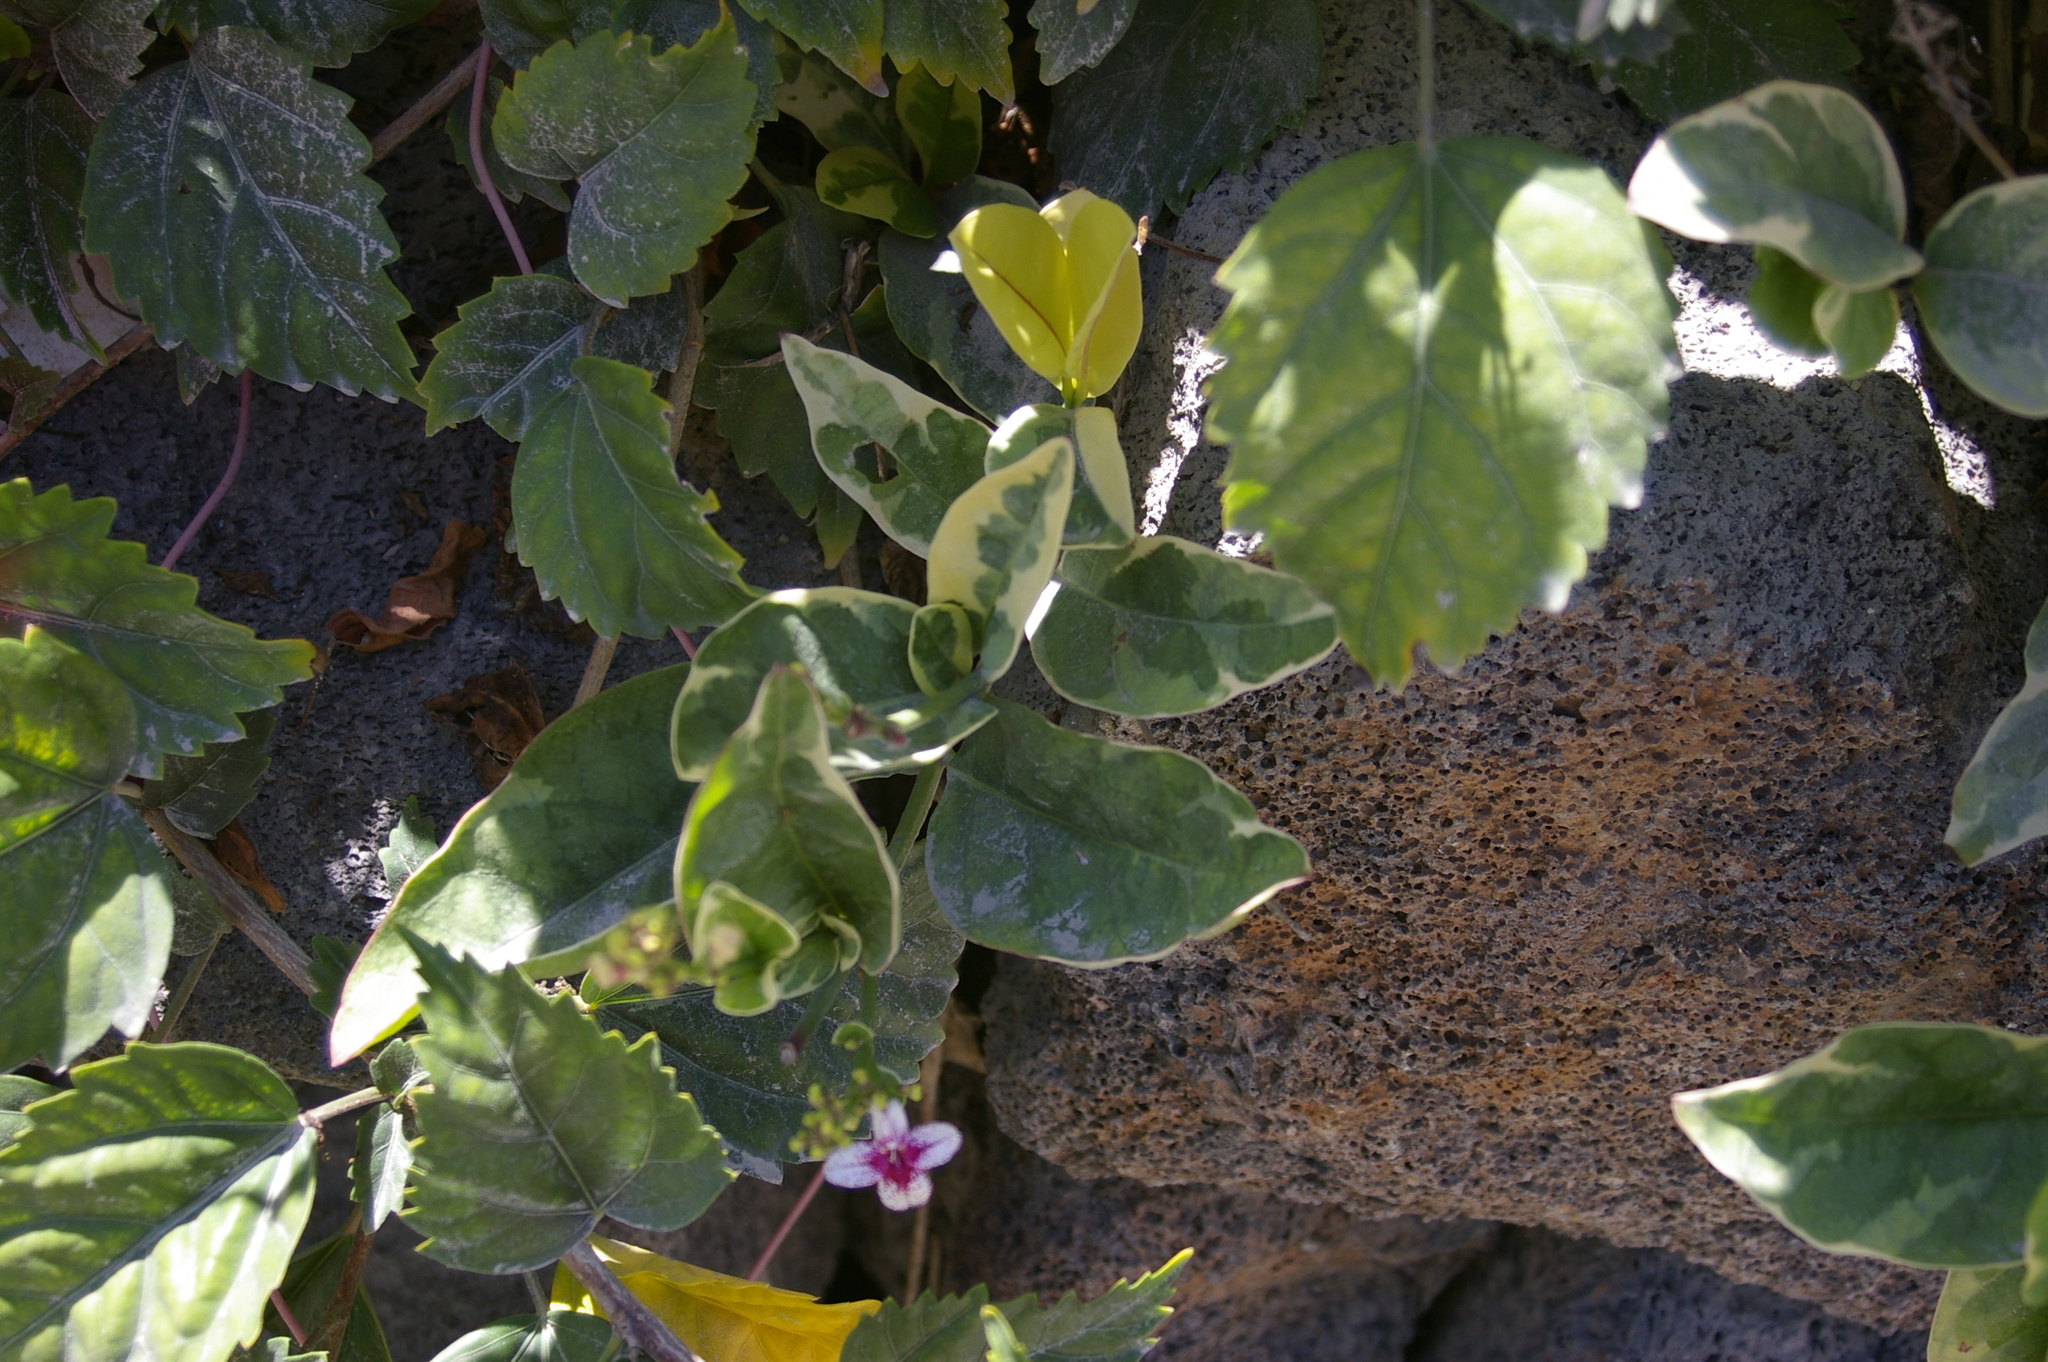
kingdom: Plantae
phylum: Tracheophyta
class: Magnoliopsida
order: Lamiales
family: Acanthaceae
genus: Pseuderanthemum
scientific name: Pseuderanthemum maculatum
